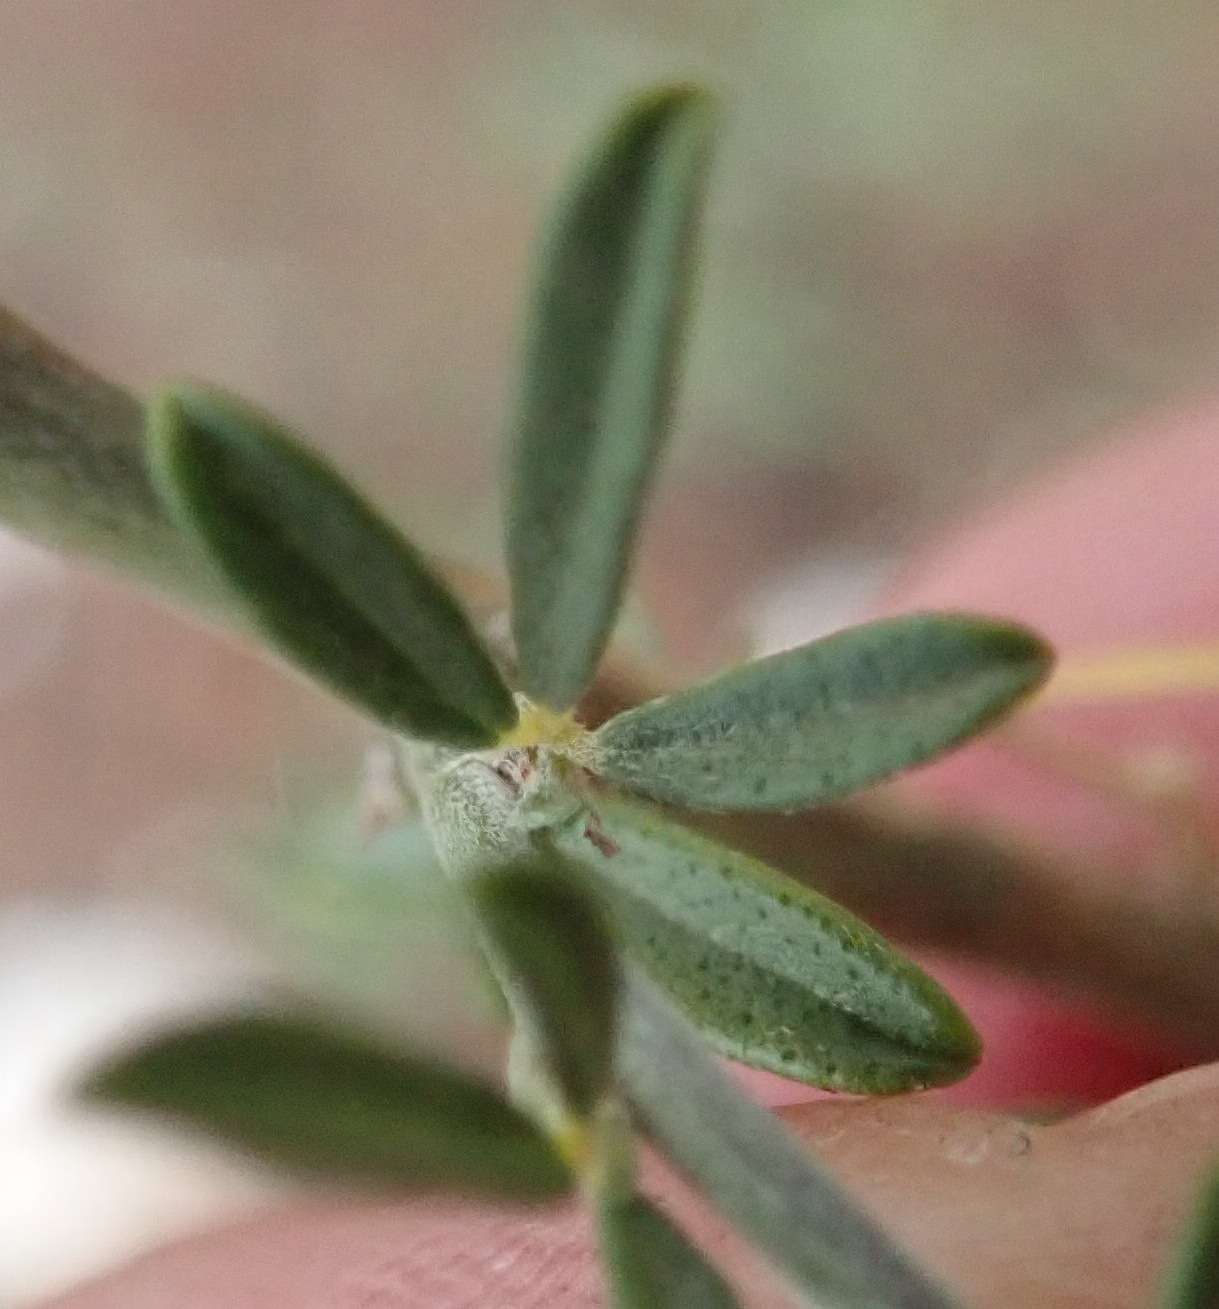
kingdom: Plantae
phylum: Tracheophyta
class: Magnoliopsida
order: Fabales
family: Fabaceae
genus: Psoralea
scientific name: Psoralea candicans
